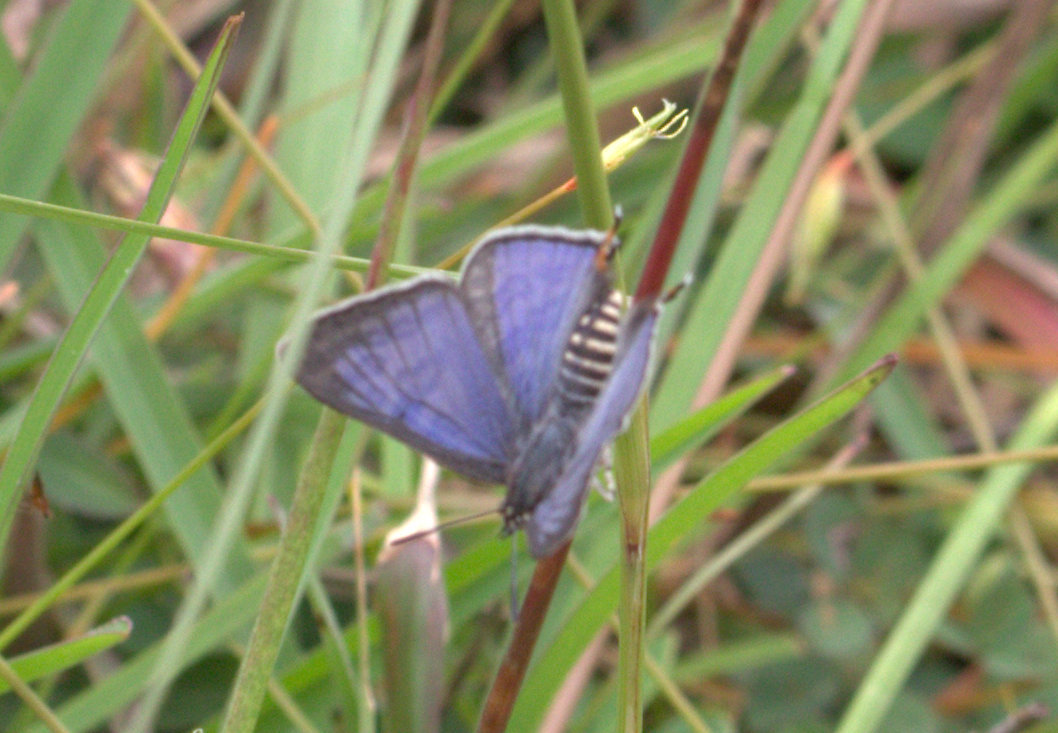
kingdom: Animalia
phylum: Arthropoda
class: Insecta
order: Lepidoptera
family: Lycaenidae
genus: Aphnaeus
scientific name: Aphnaeus lilacinus
